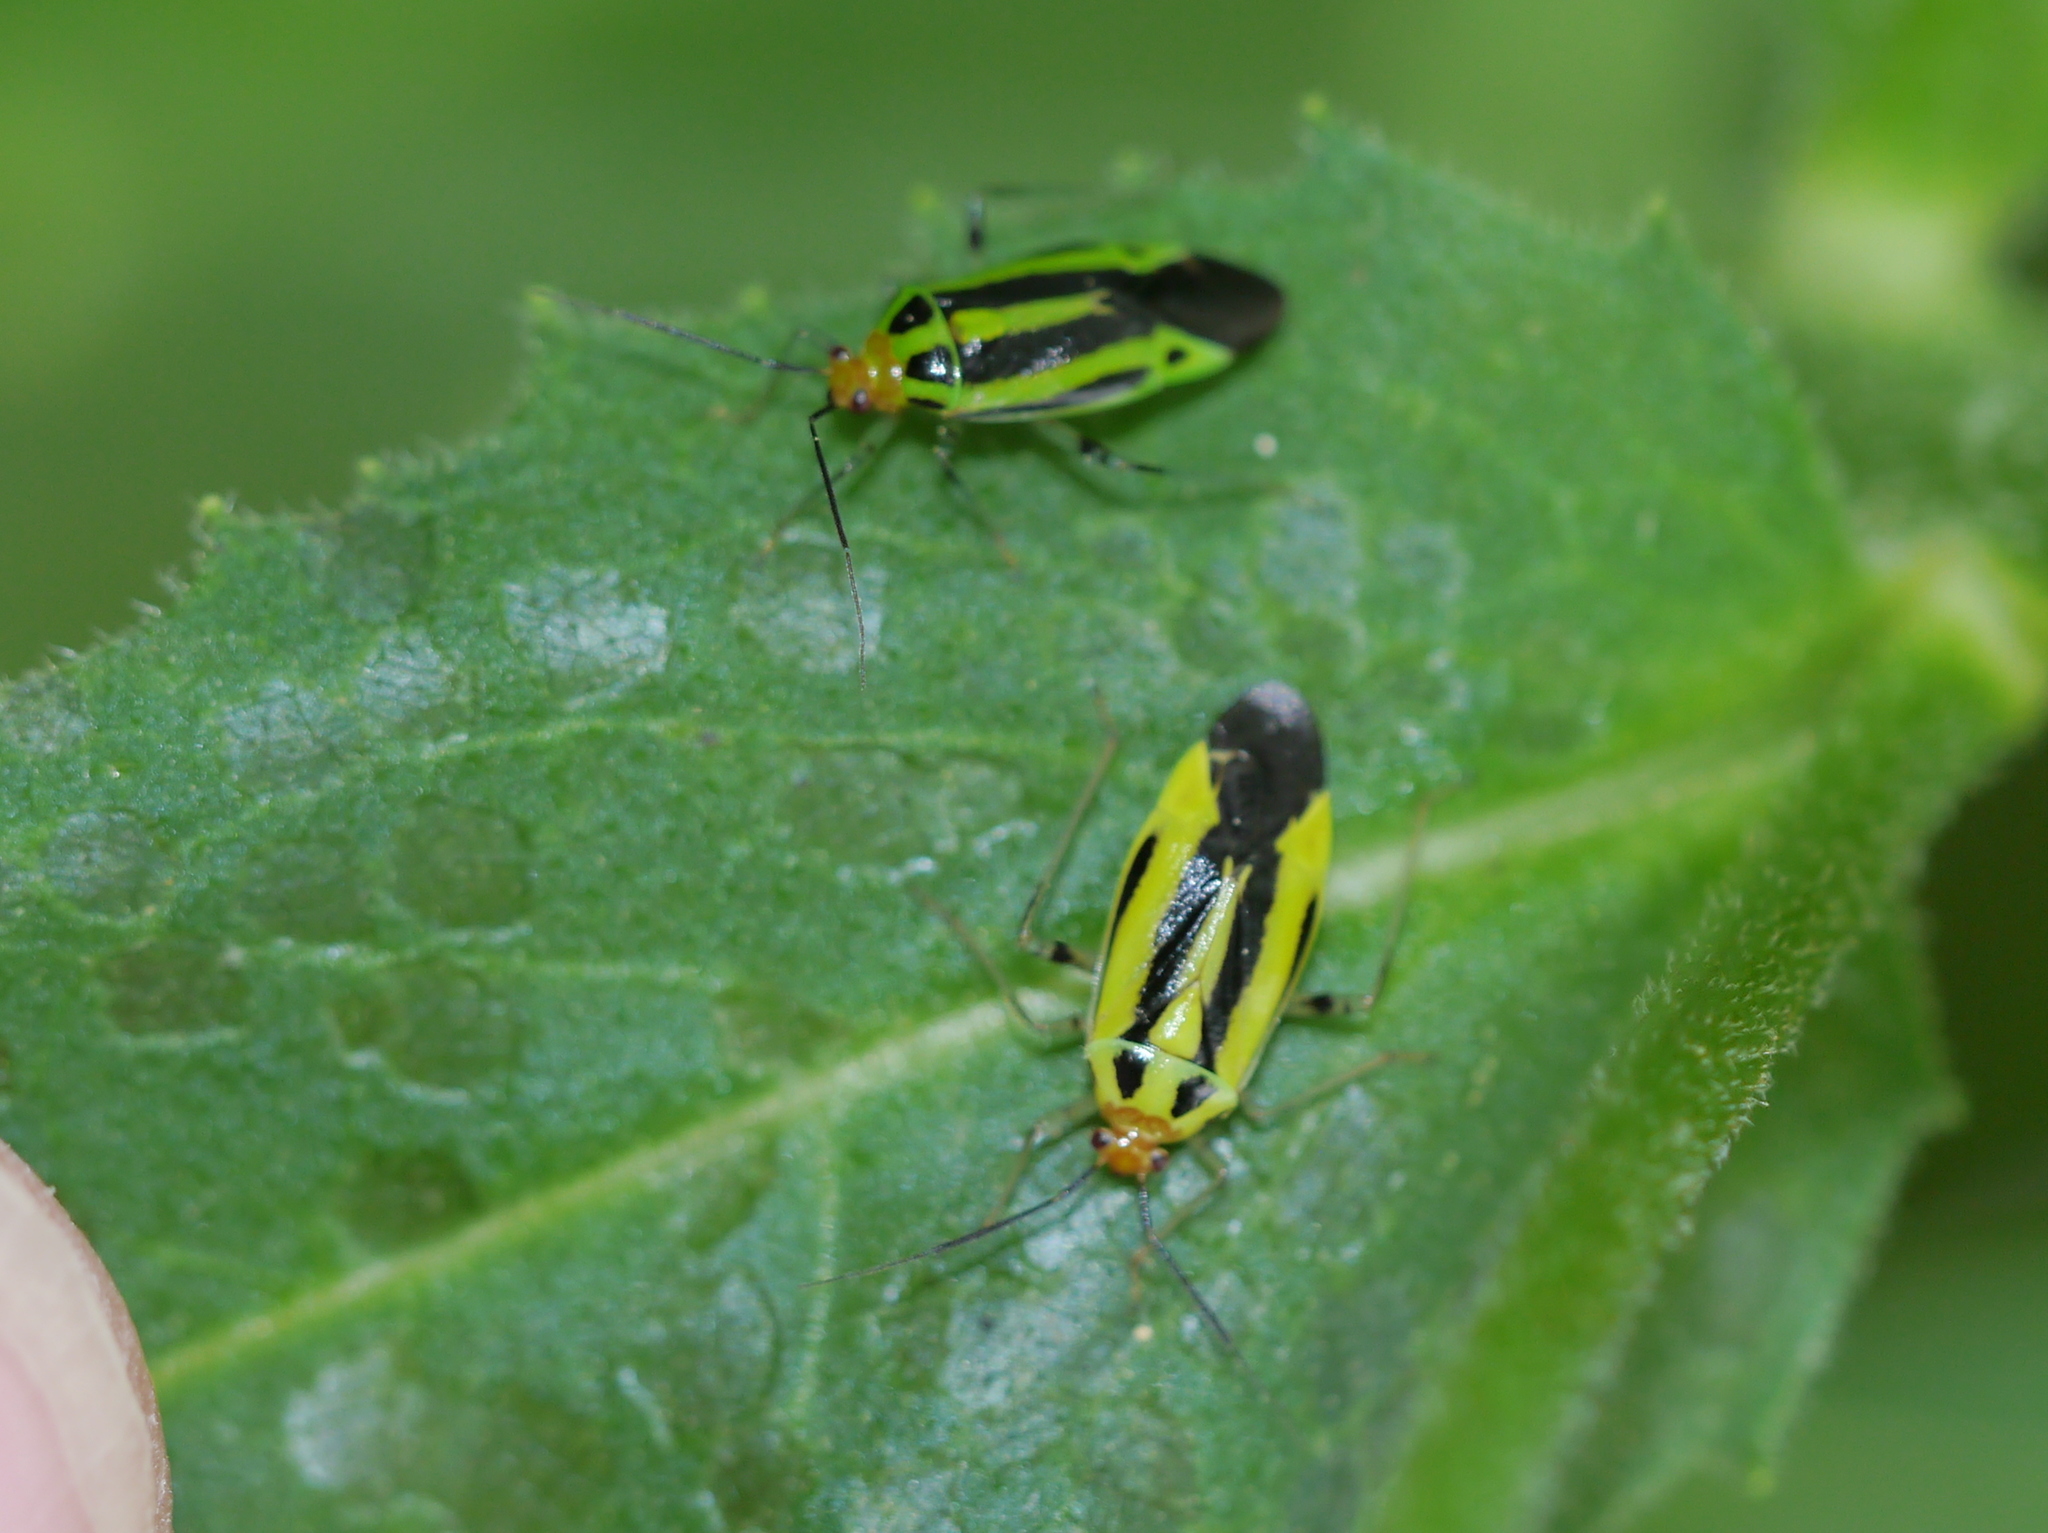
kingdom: Animalia
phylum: Arthropoda
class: Insecta
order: Hemiptera
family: Miridae
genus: Poecilocapsus
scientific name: Poecilocapsus lineatus
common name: Four-lined plant bug
